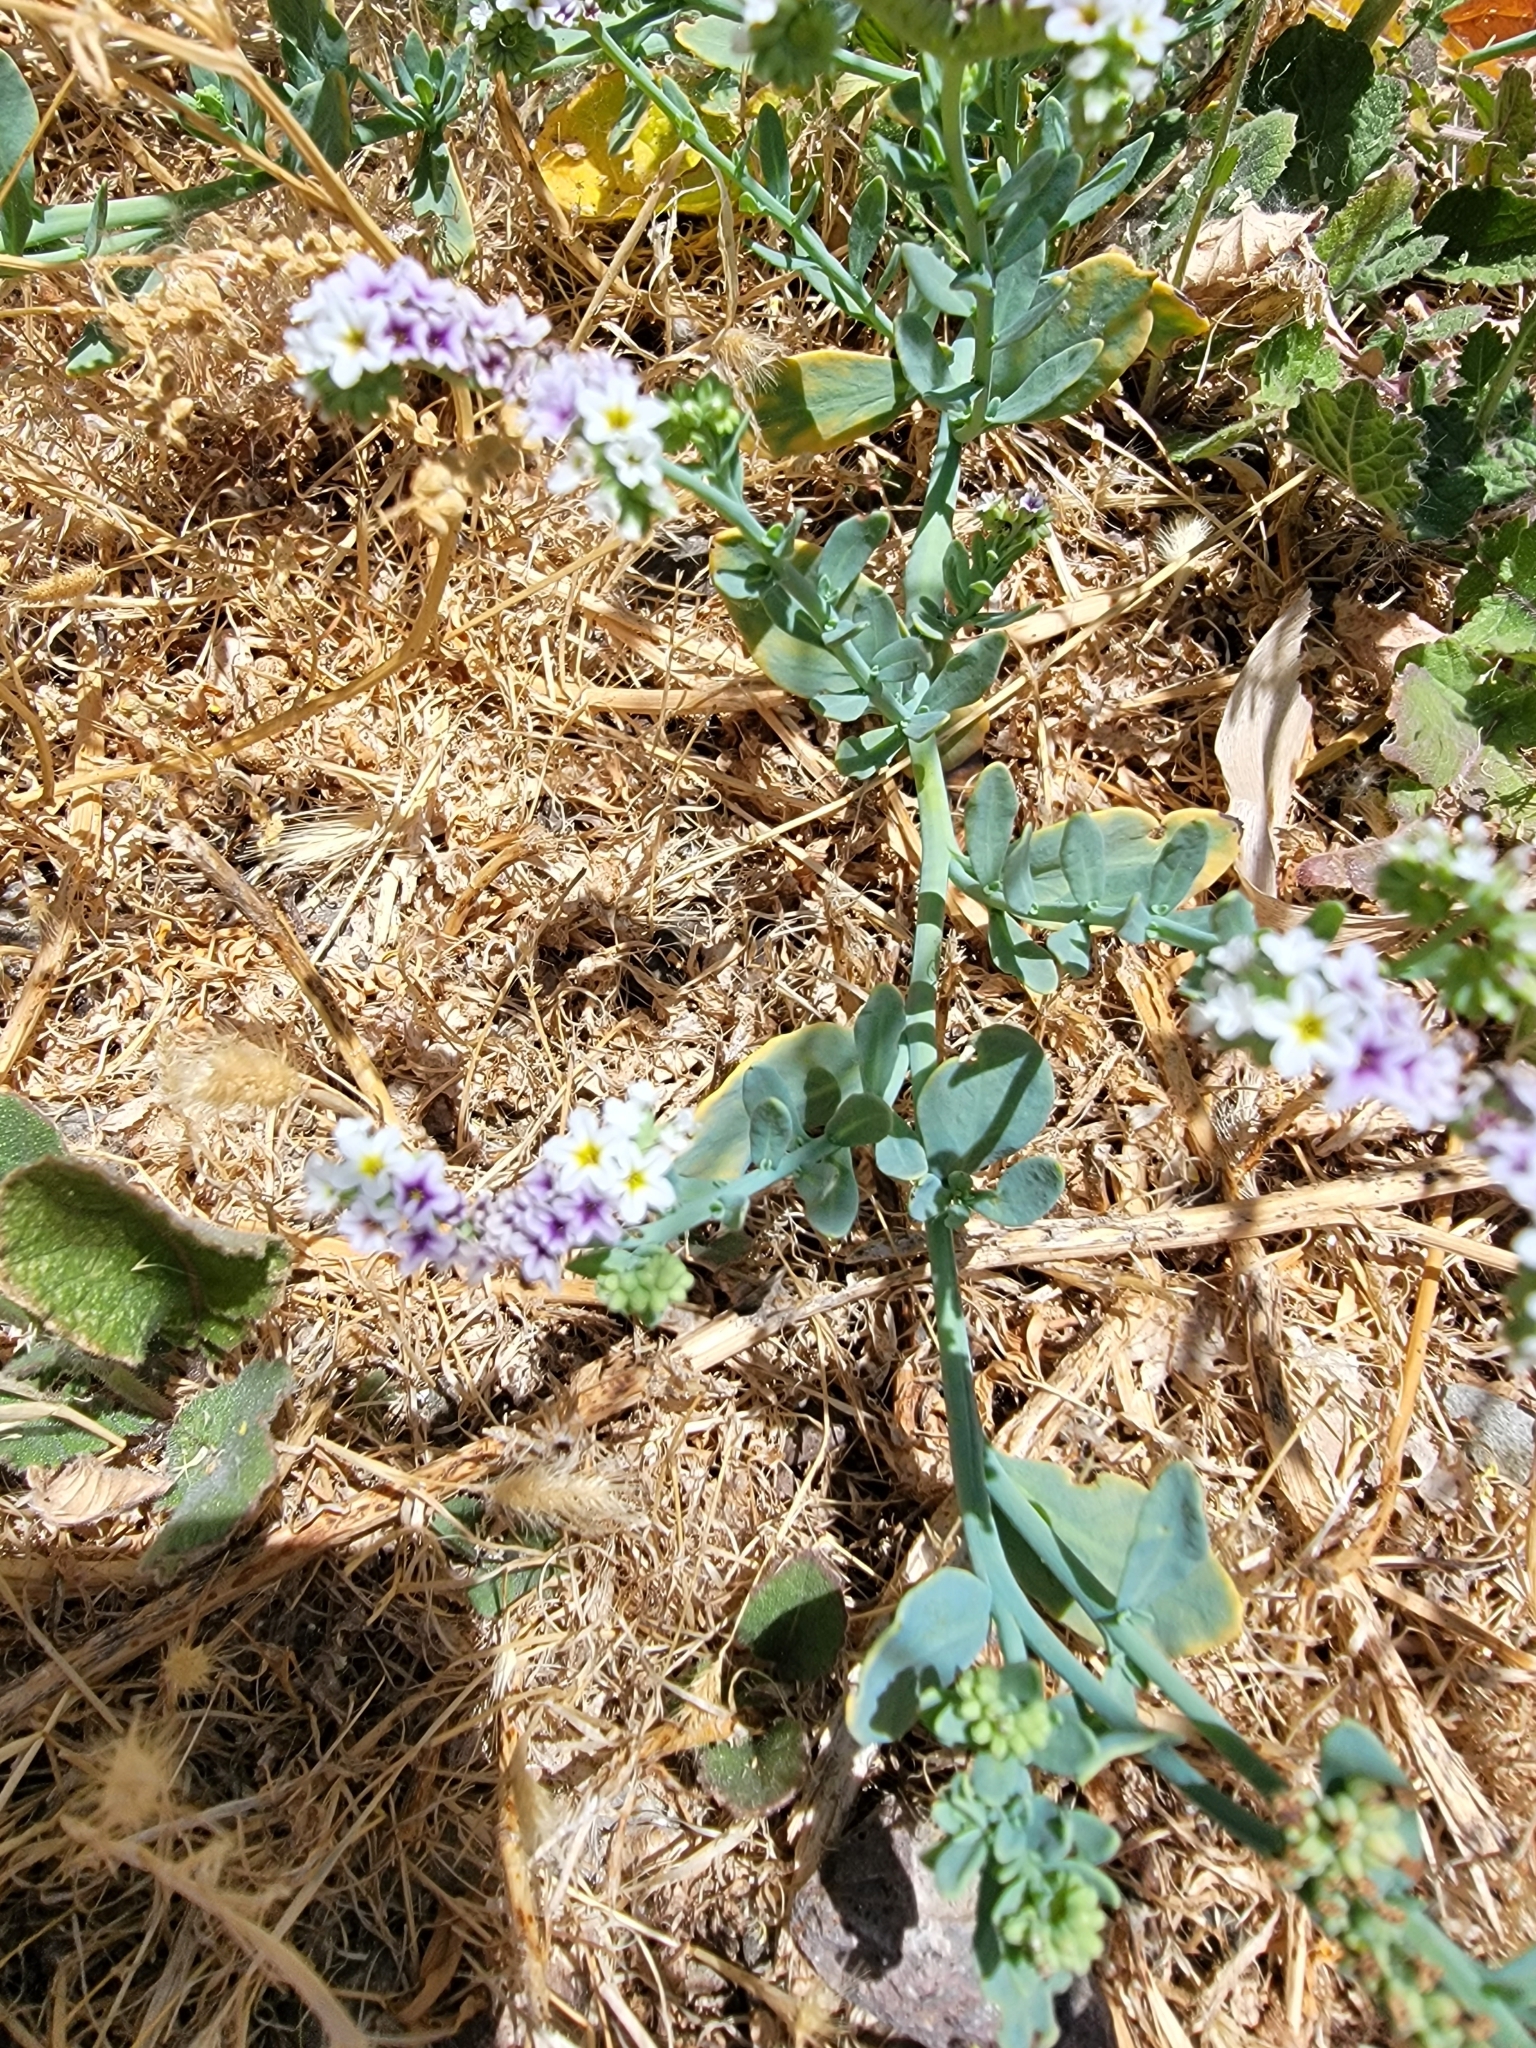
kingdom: Plantae
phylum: Tracheophyta
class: Magnoliopsida
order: Boraginales
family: Heliotropiaceae
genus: Heliotropium
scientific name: Heliotropium curassavicum
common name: Seaside heliotrope
